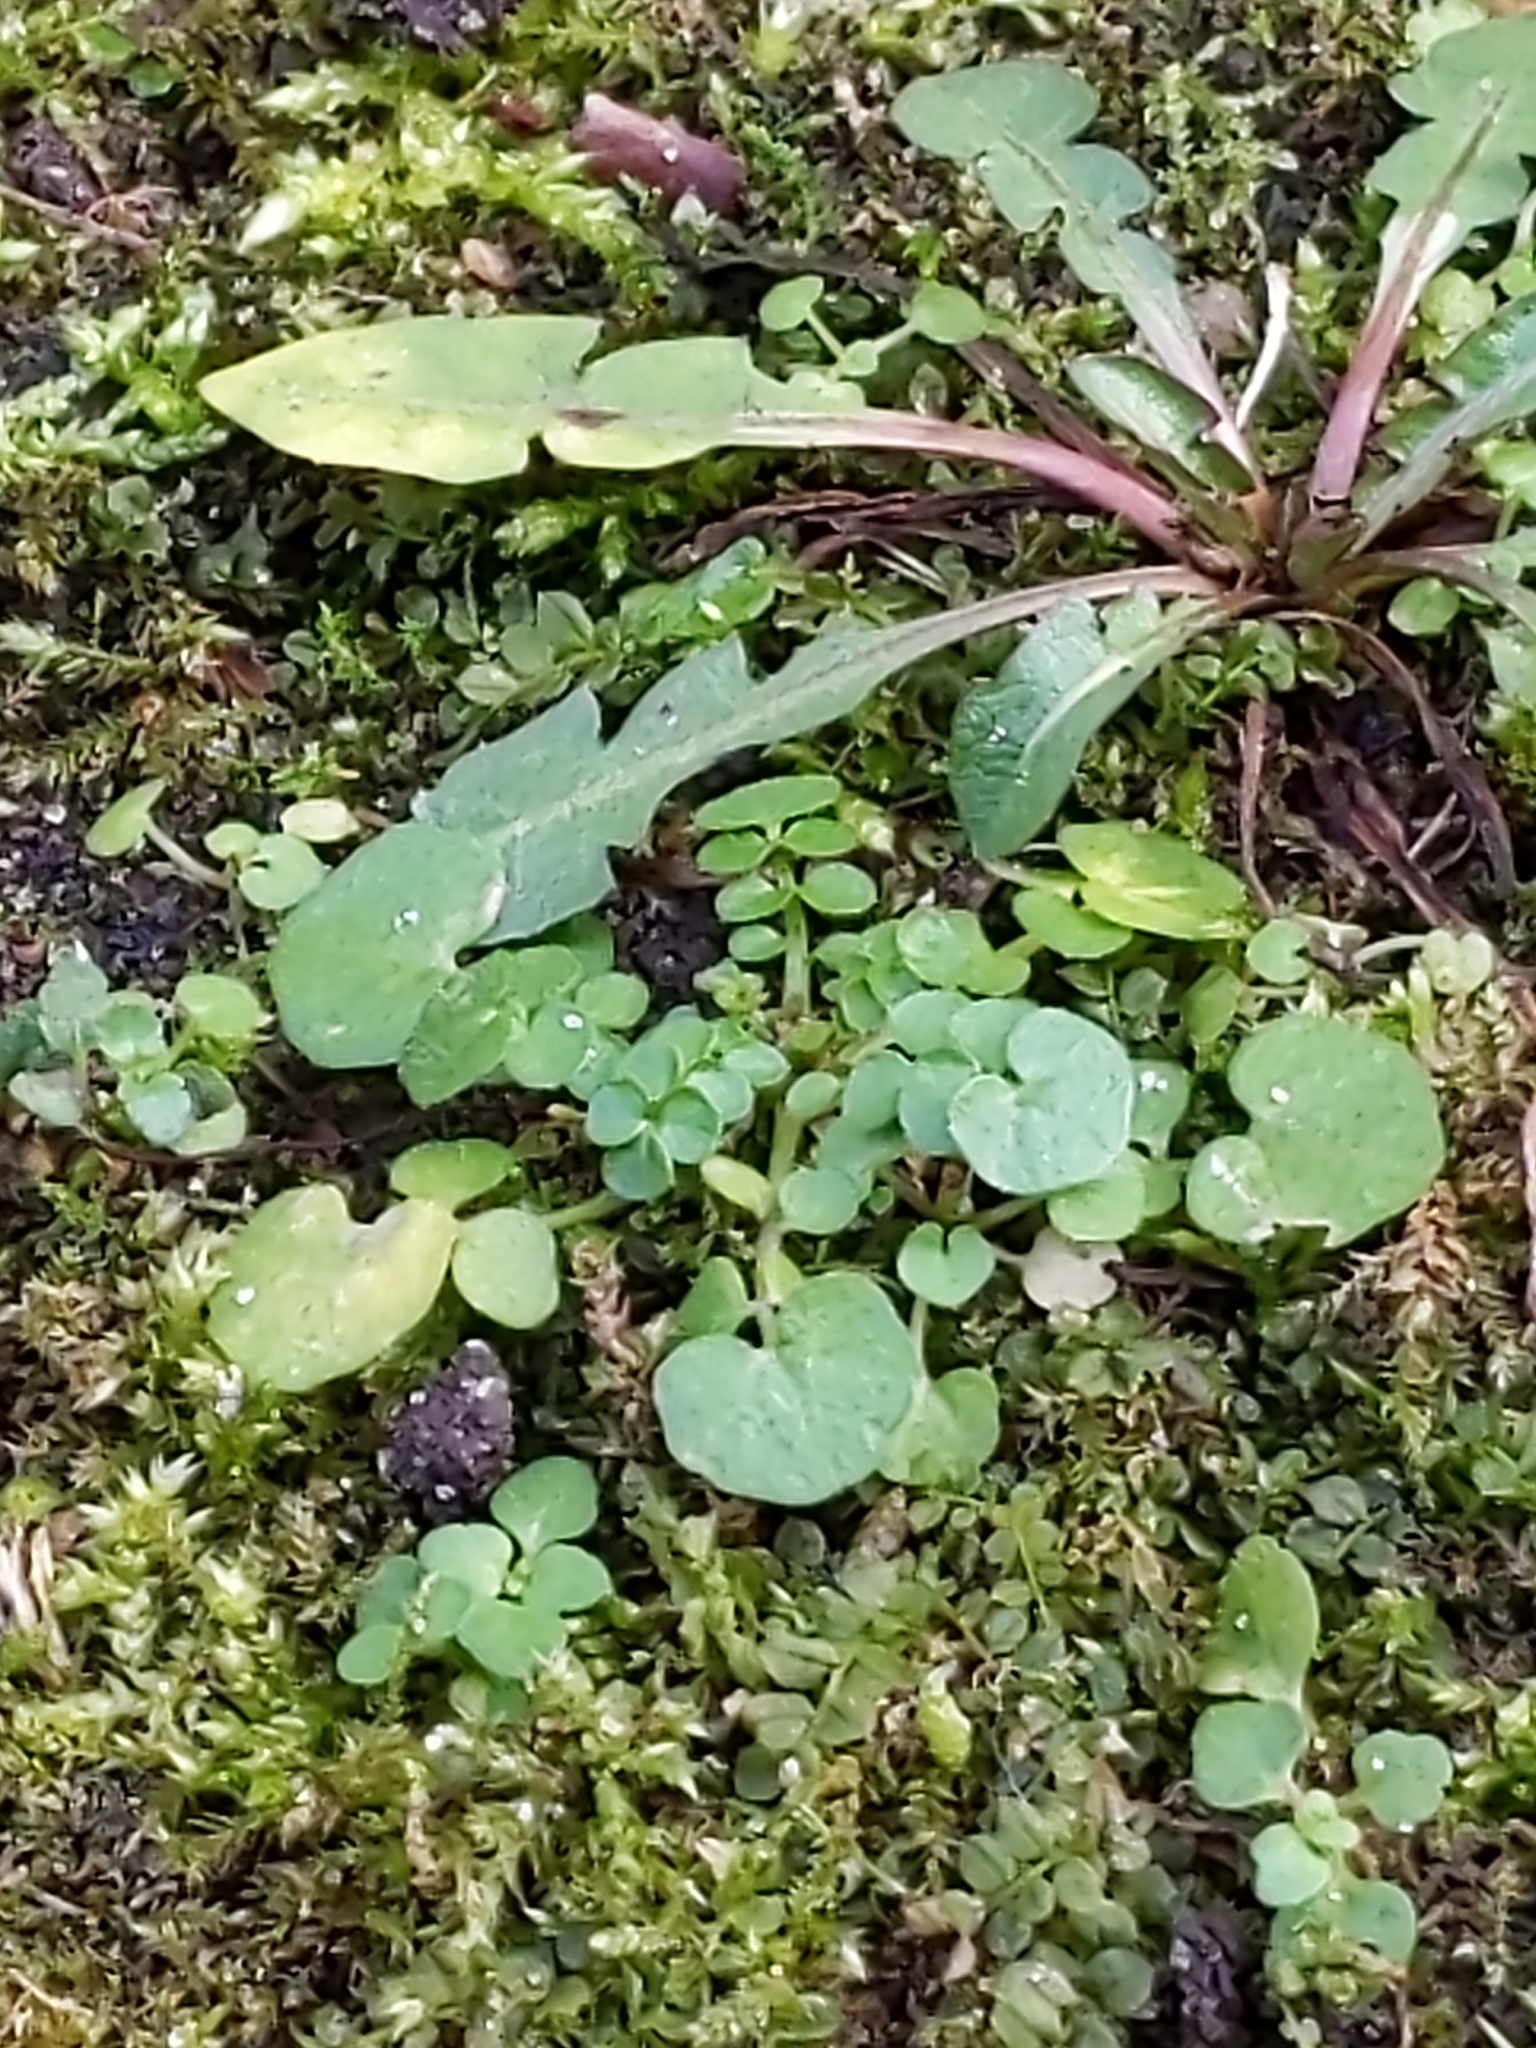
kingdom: Plantae
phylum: Tracheophyta
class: Magnoliopsida
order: Brassicales
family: Brassicaceae
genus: Cardamine
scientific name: Cardamine hirsuta
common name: Hairy bittercress
